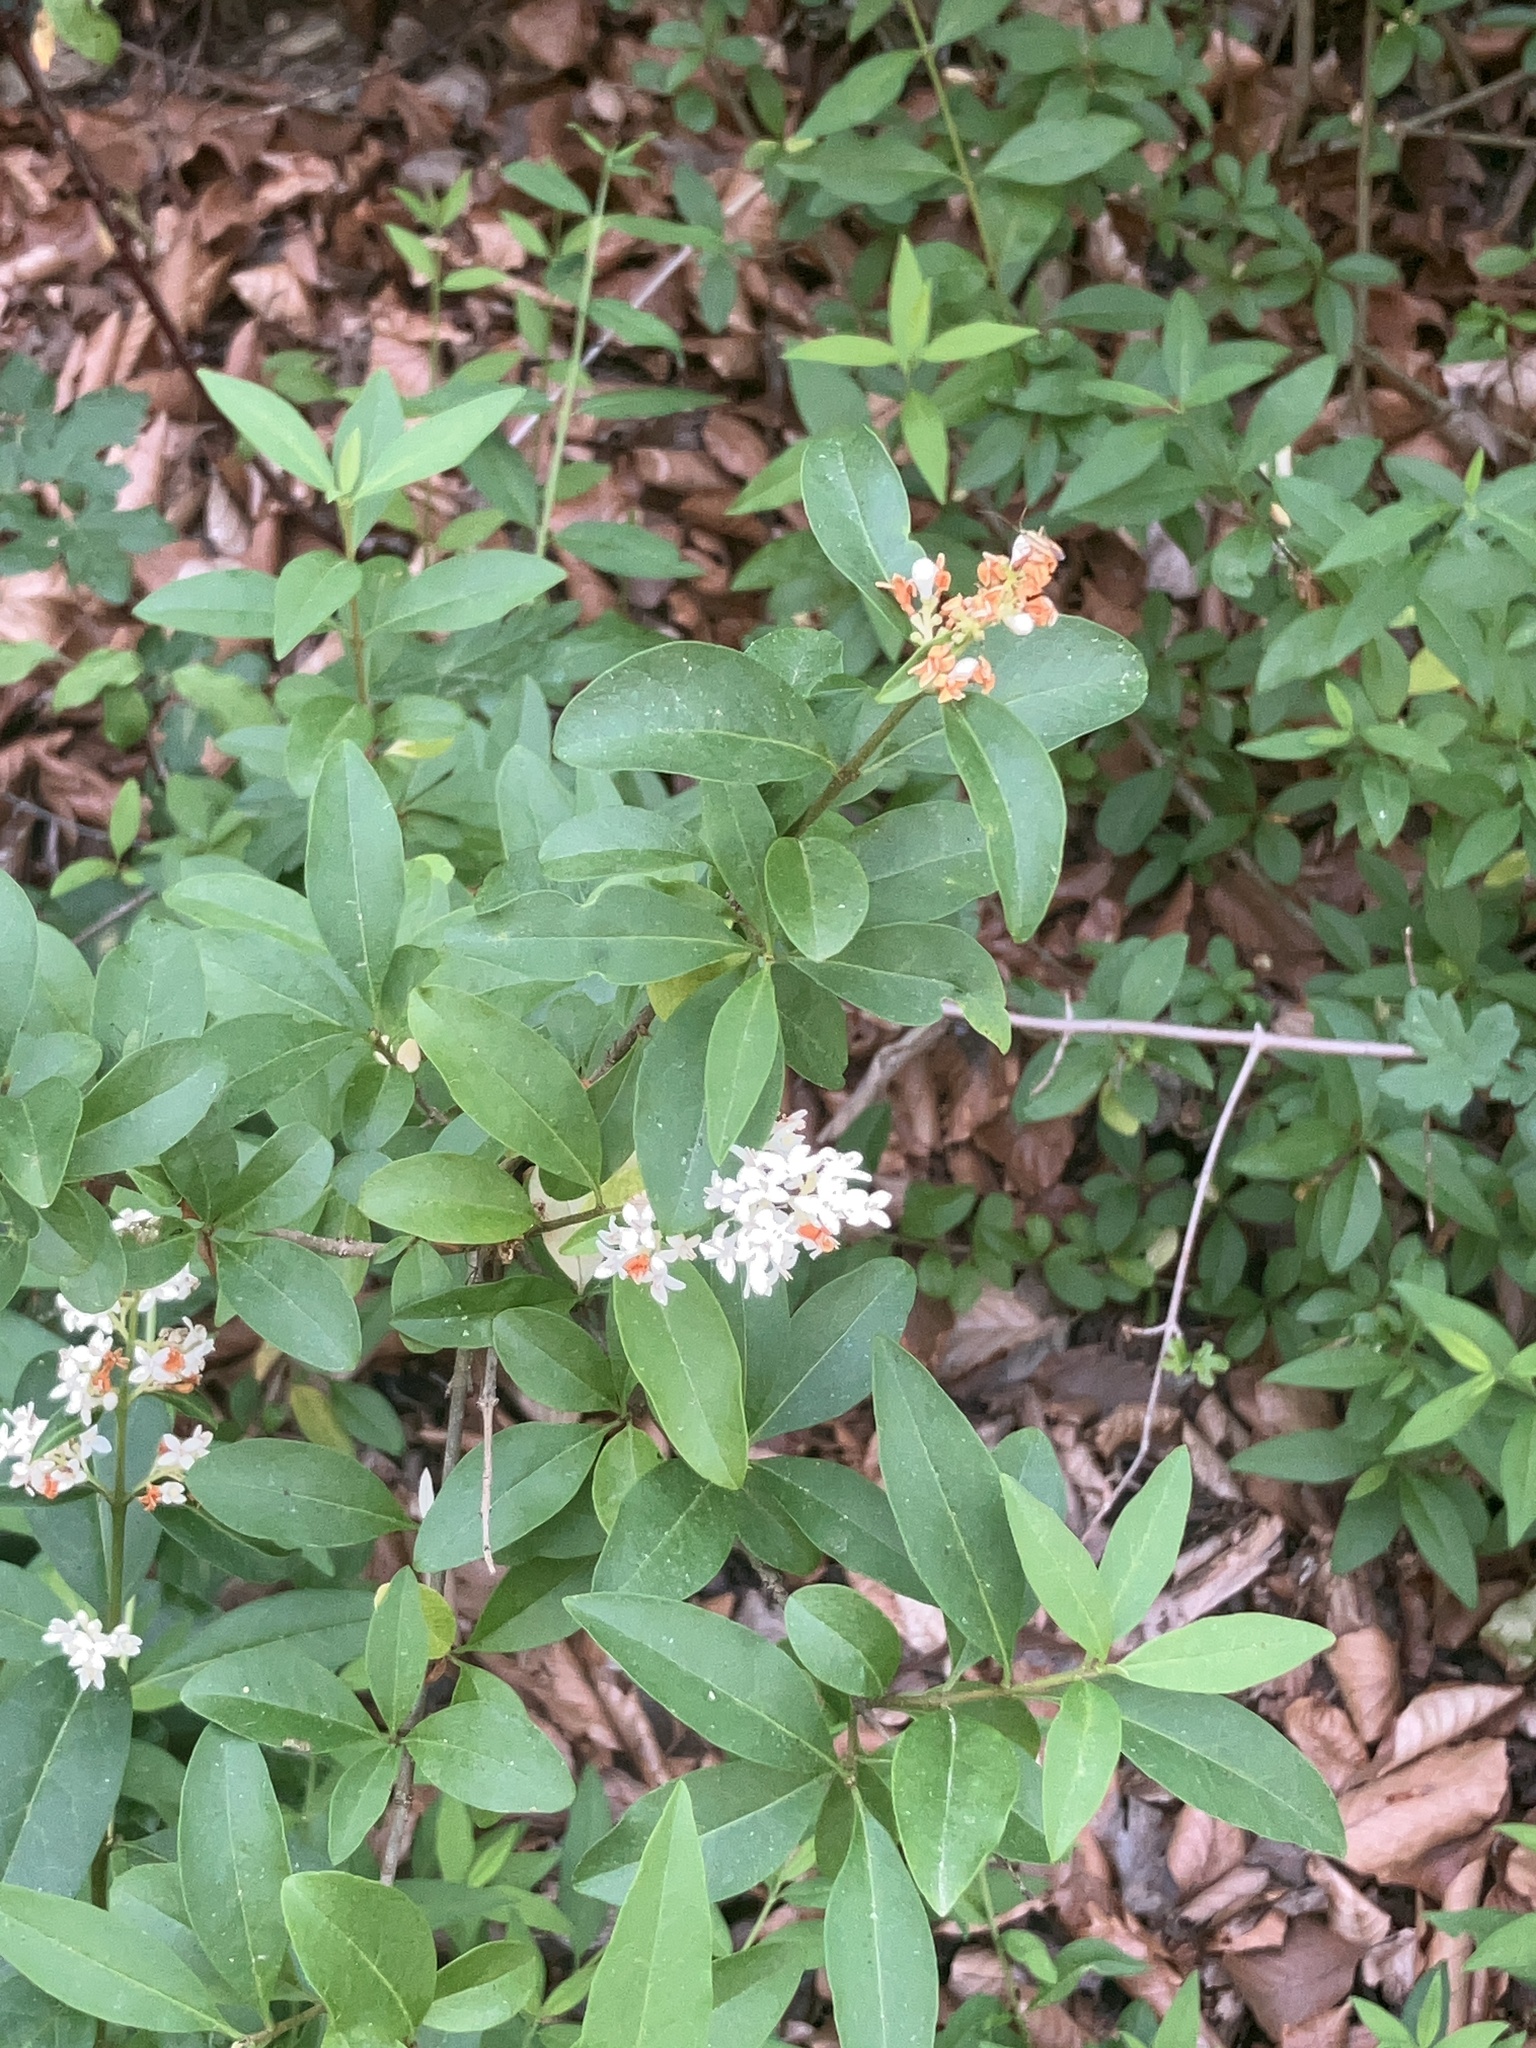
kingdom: Plantae
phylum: Tracheophyta
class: Magnoliopsida
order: Lamiales
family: Oleaceae
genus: Ligustrum
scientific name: Ligustrum vulgare
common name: Wild privet
